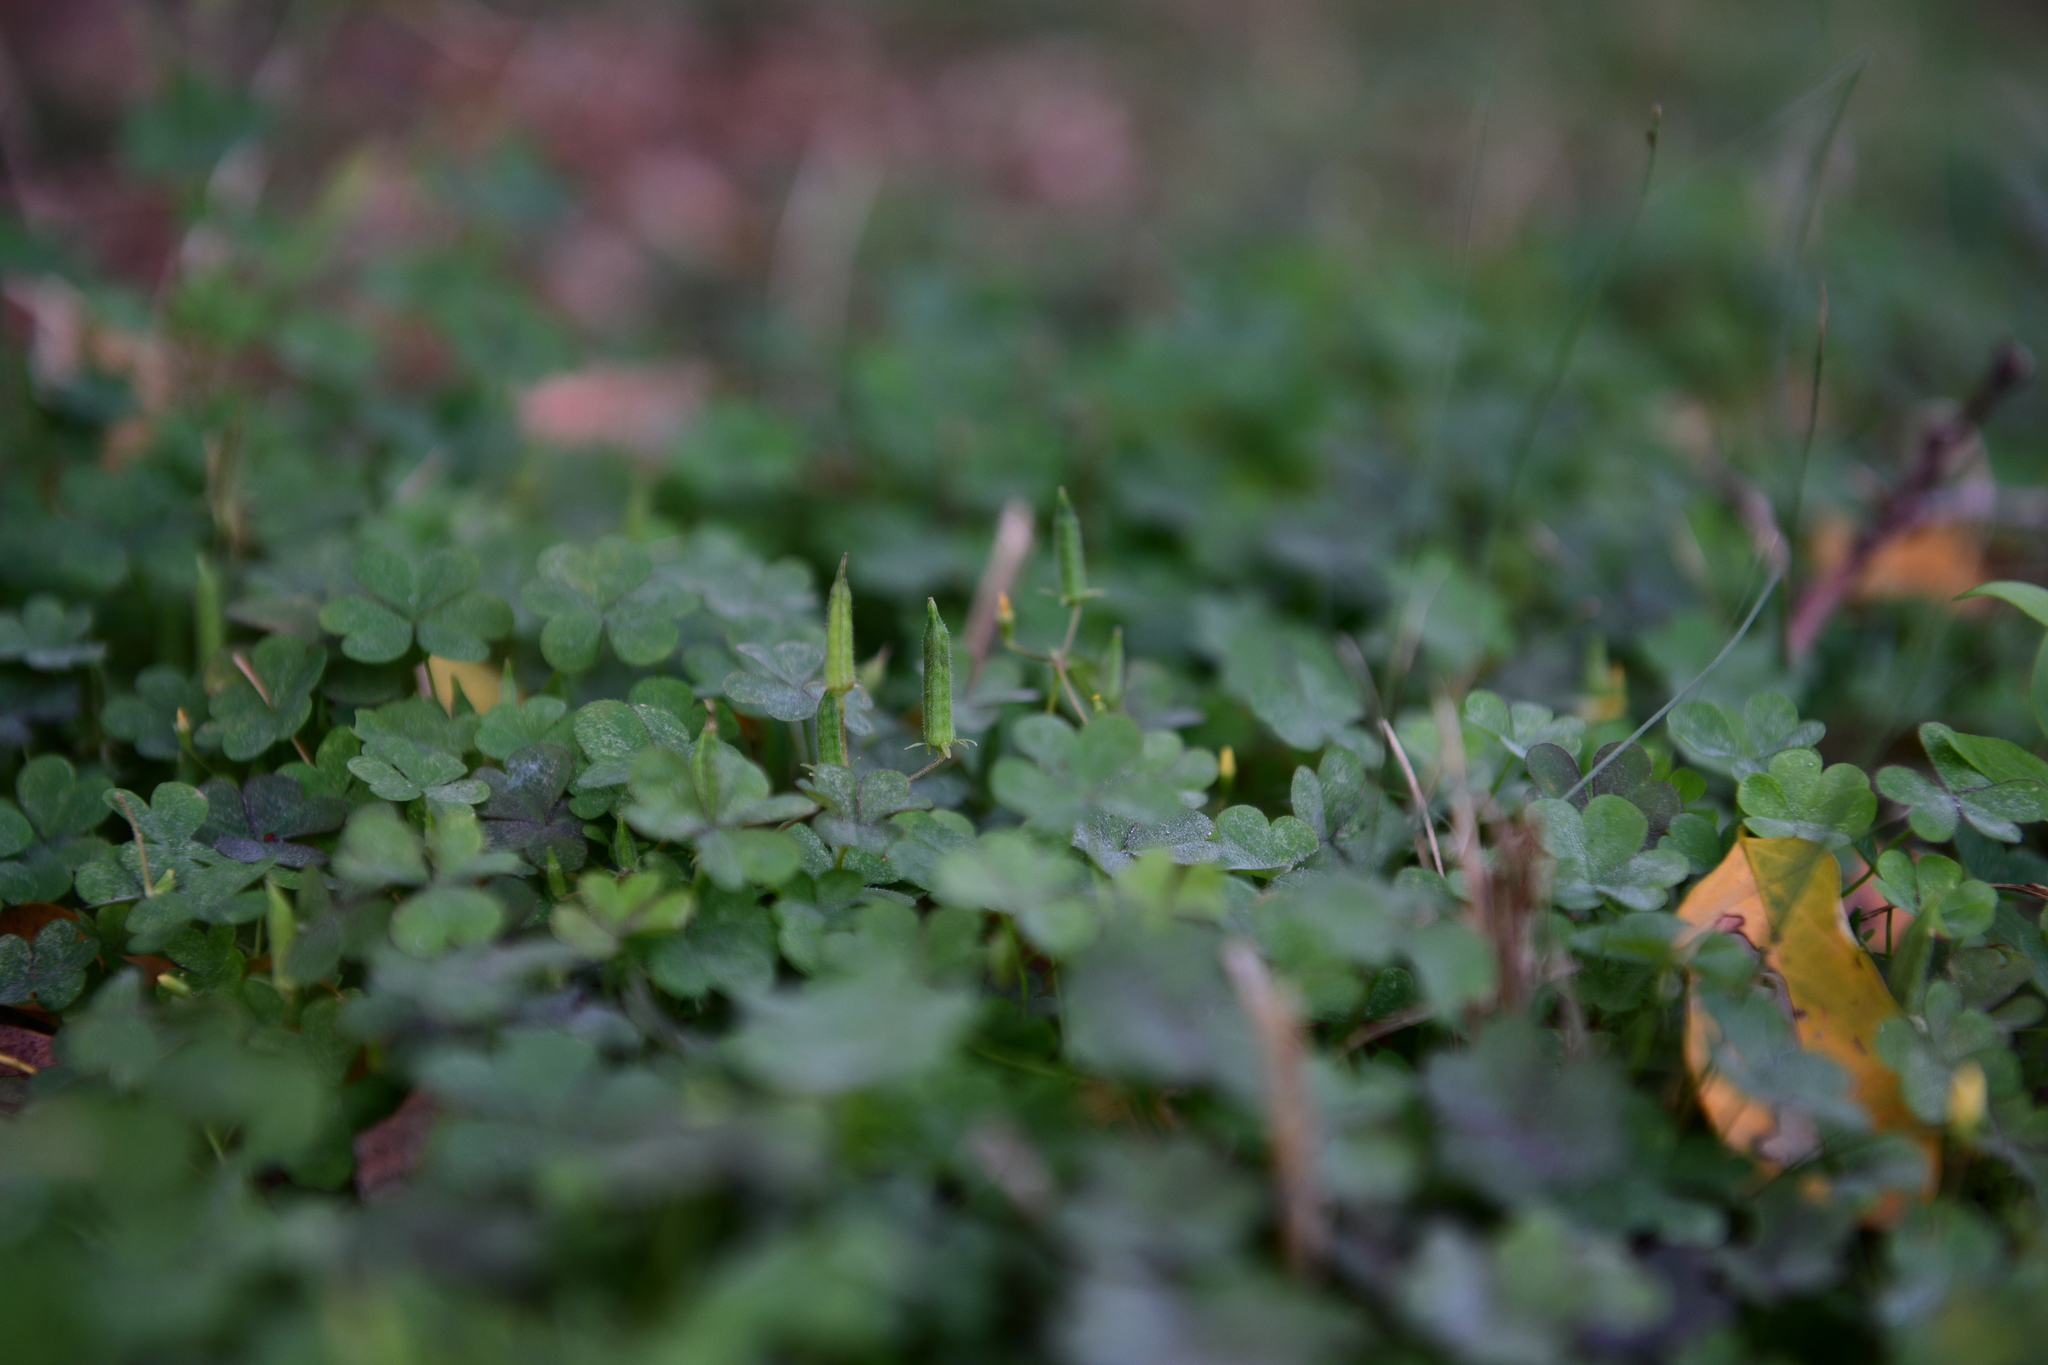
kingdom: Plantae
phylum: Tracheophyta
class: Magnoliopsida
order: Oxalidales
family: Oxalidaceae
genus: Oxalis
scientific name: Oxalis corniculata
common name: Procumbent yellow-sorrel
